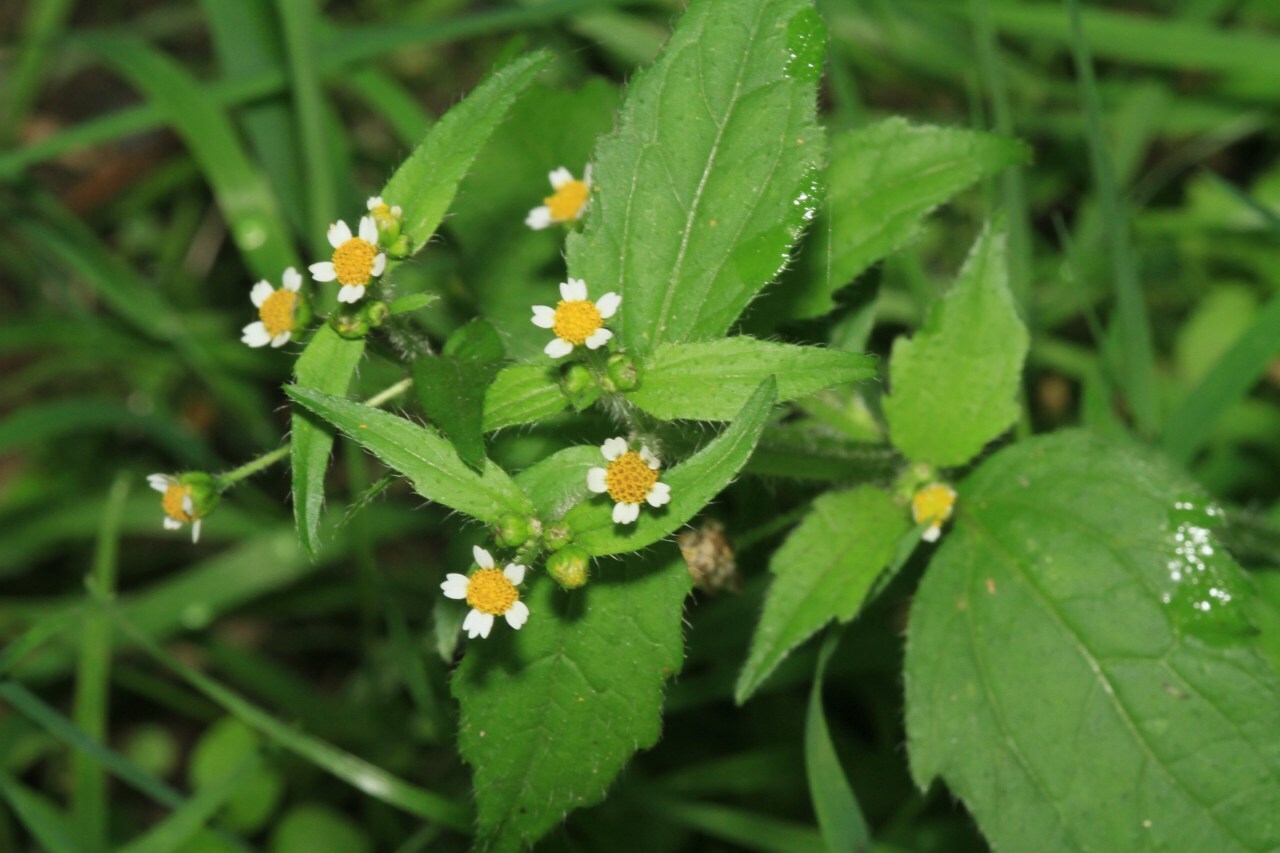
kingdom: Plantae
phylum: Tracheophyta
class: Magnoliopsida
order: Asterales
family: Asteraceae
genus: Galinsoga
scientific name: Galinsoga quadriradiata
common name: Shaggy soldier
